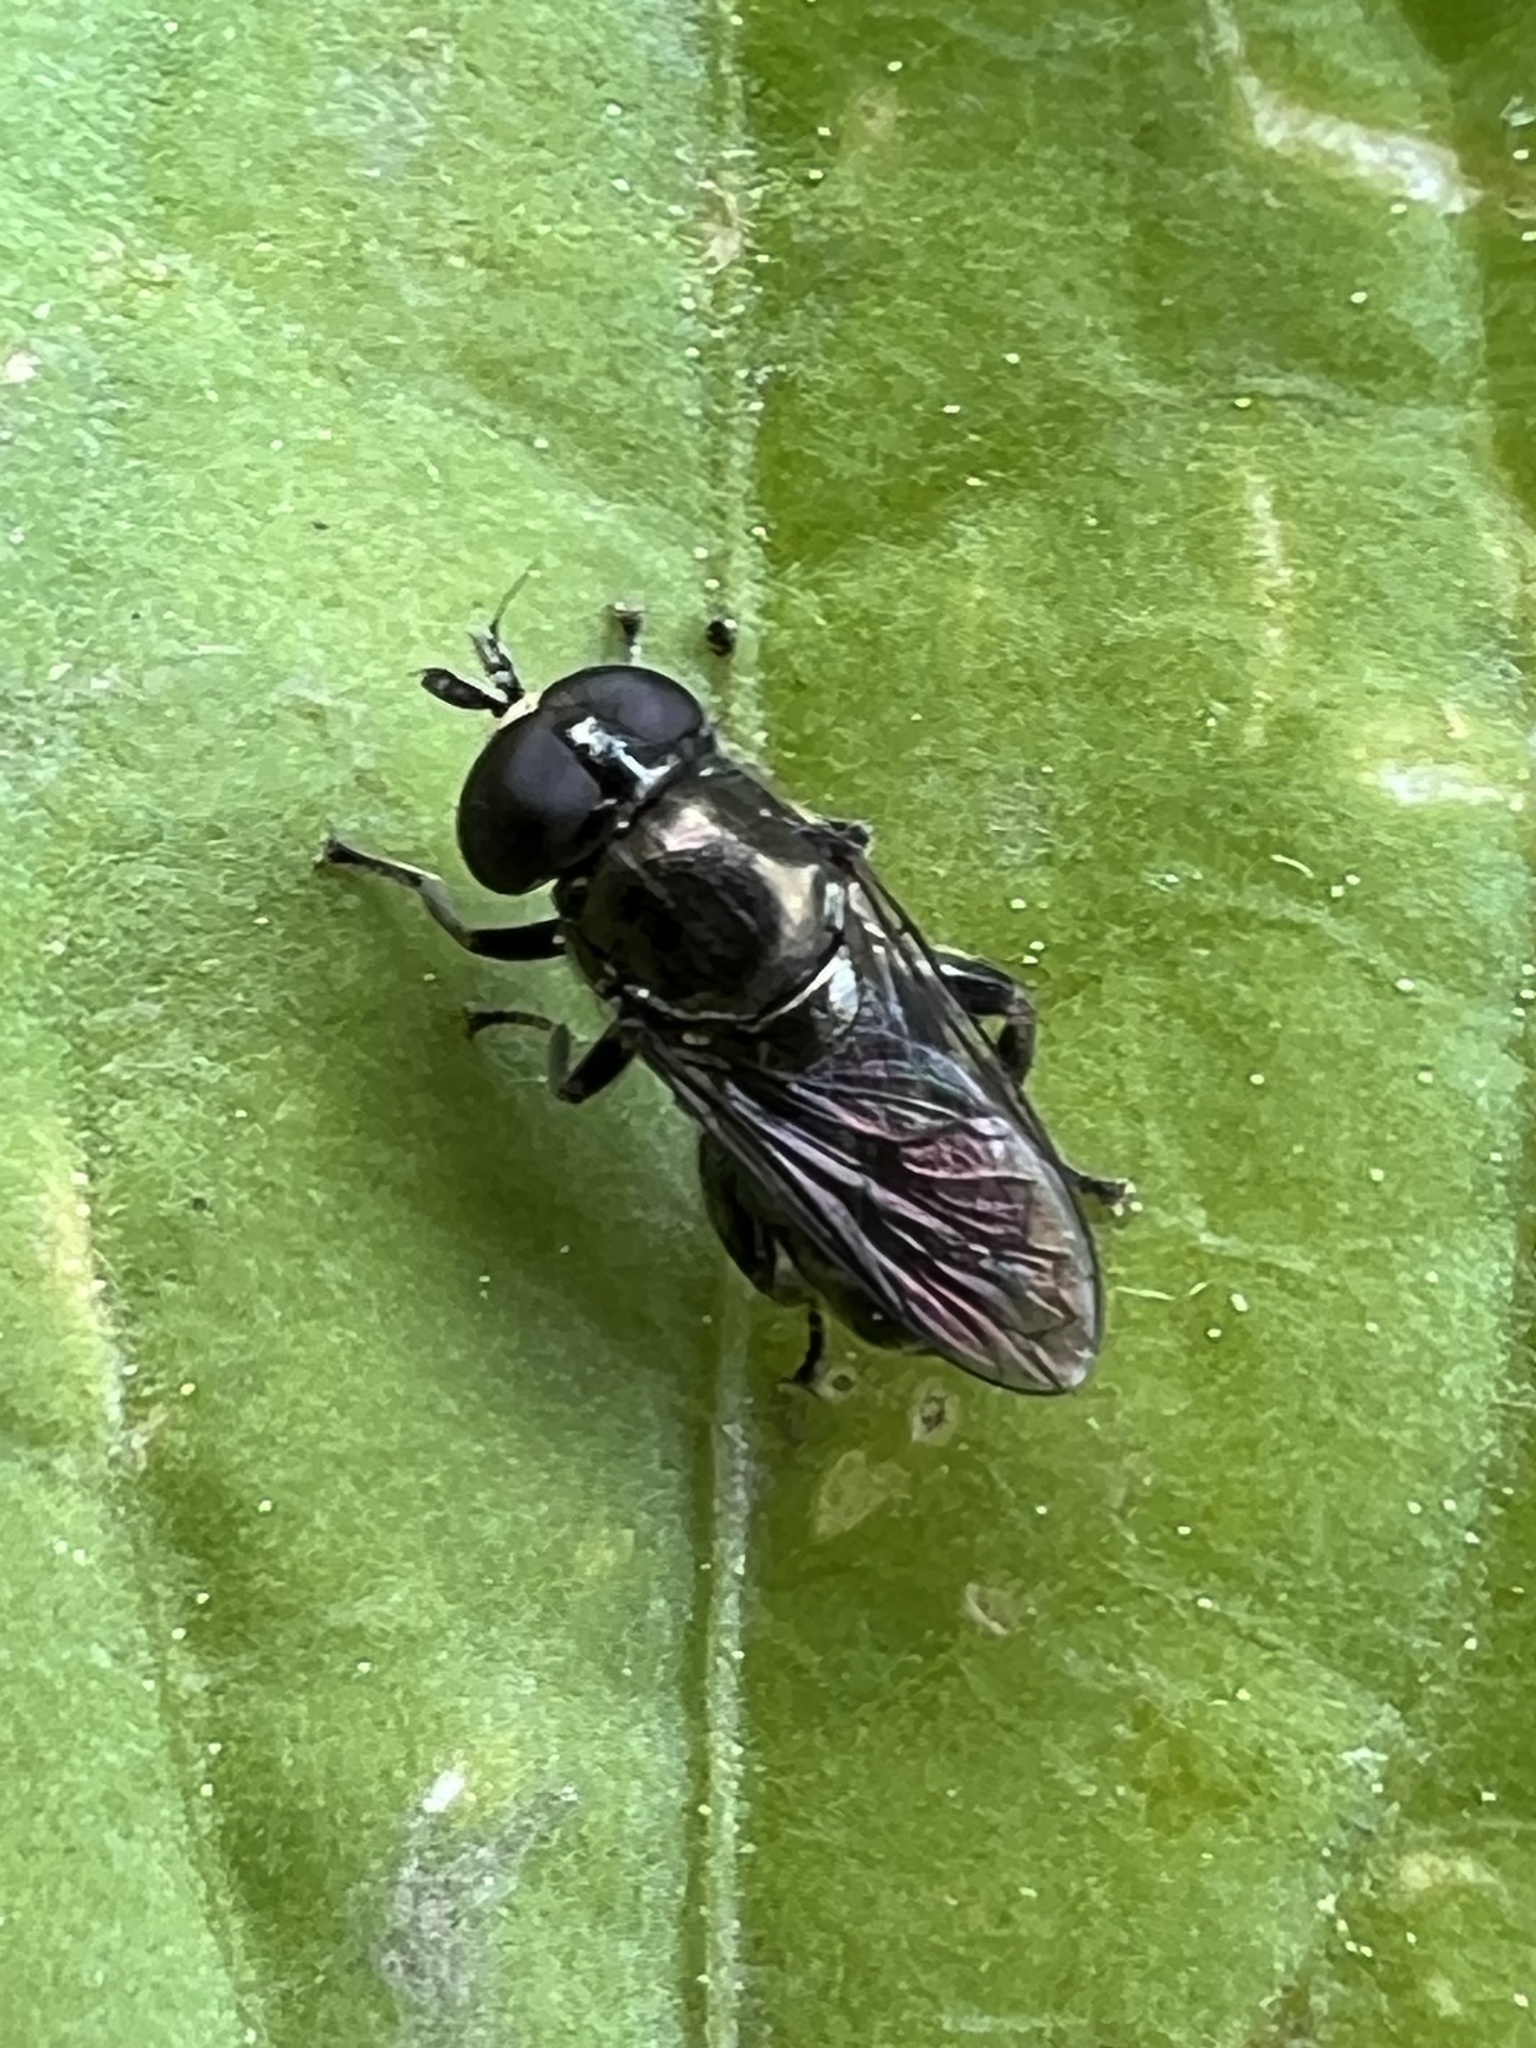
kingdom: Animalia
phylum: Arthropoda
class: Insecta
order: Diptera
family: Syrphidae
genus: Eumerus
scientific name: Eumerus
